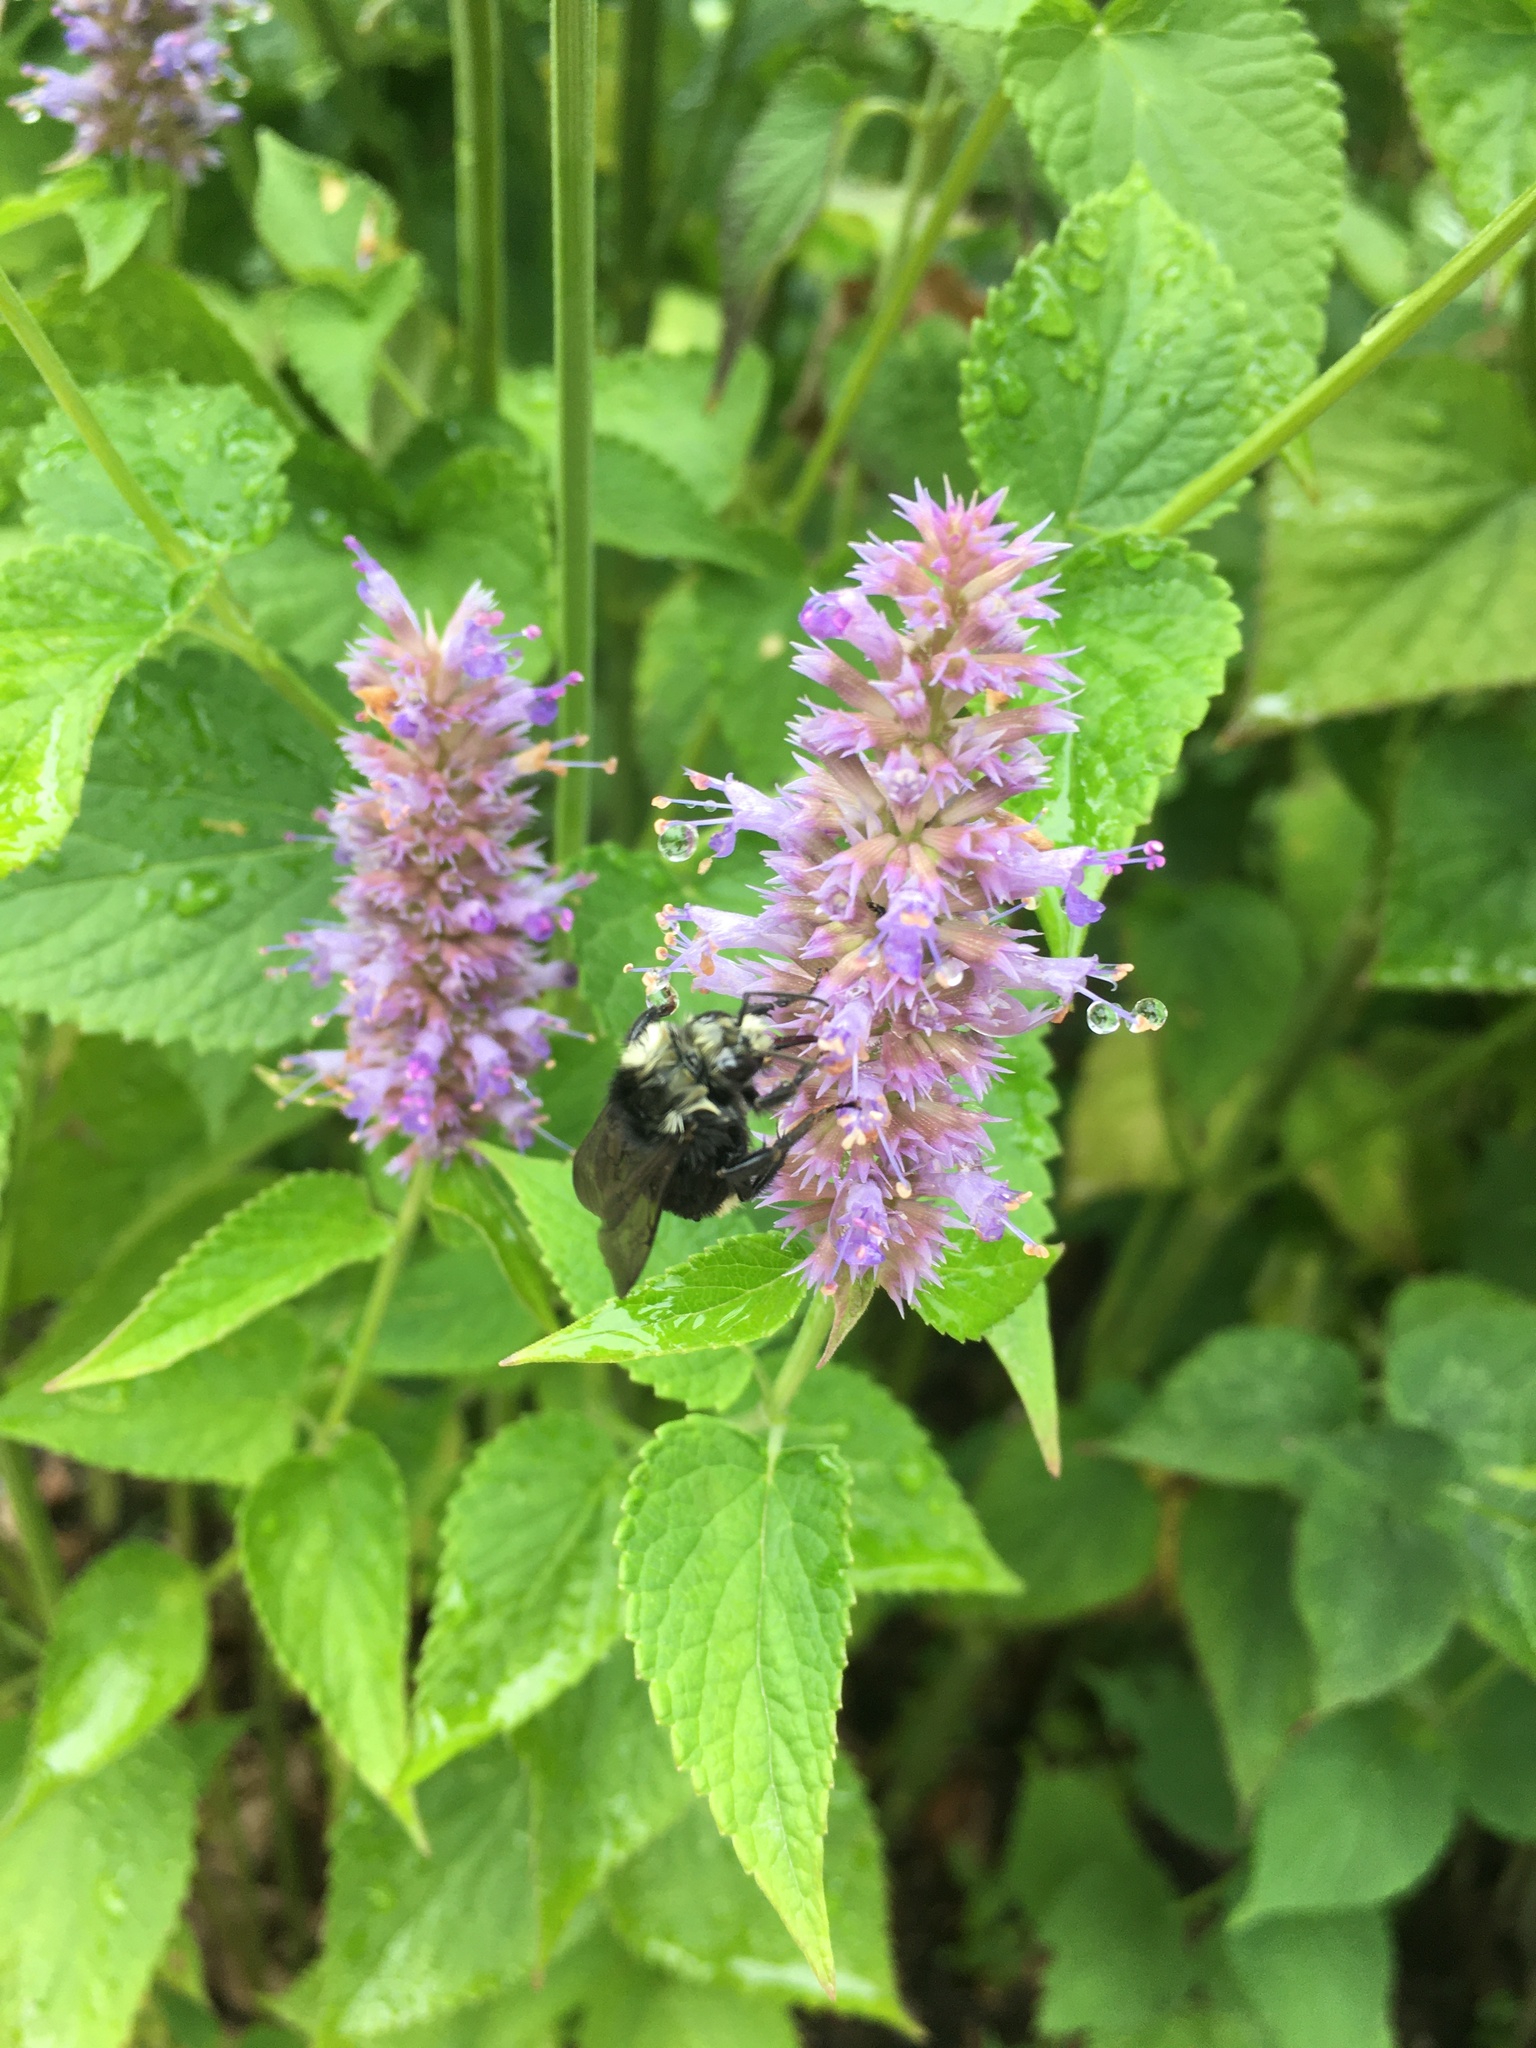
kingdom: Animalia
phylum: Arthropoda
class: Insecta
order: Hymenoptera
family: Apidae
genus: Bombus
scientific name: Bombus vosnesenskii
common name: Vosnesensky bumble bee
